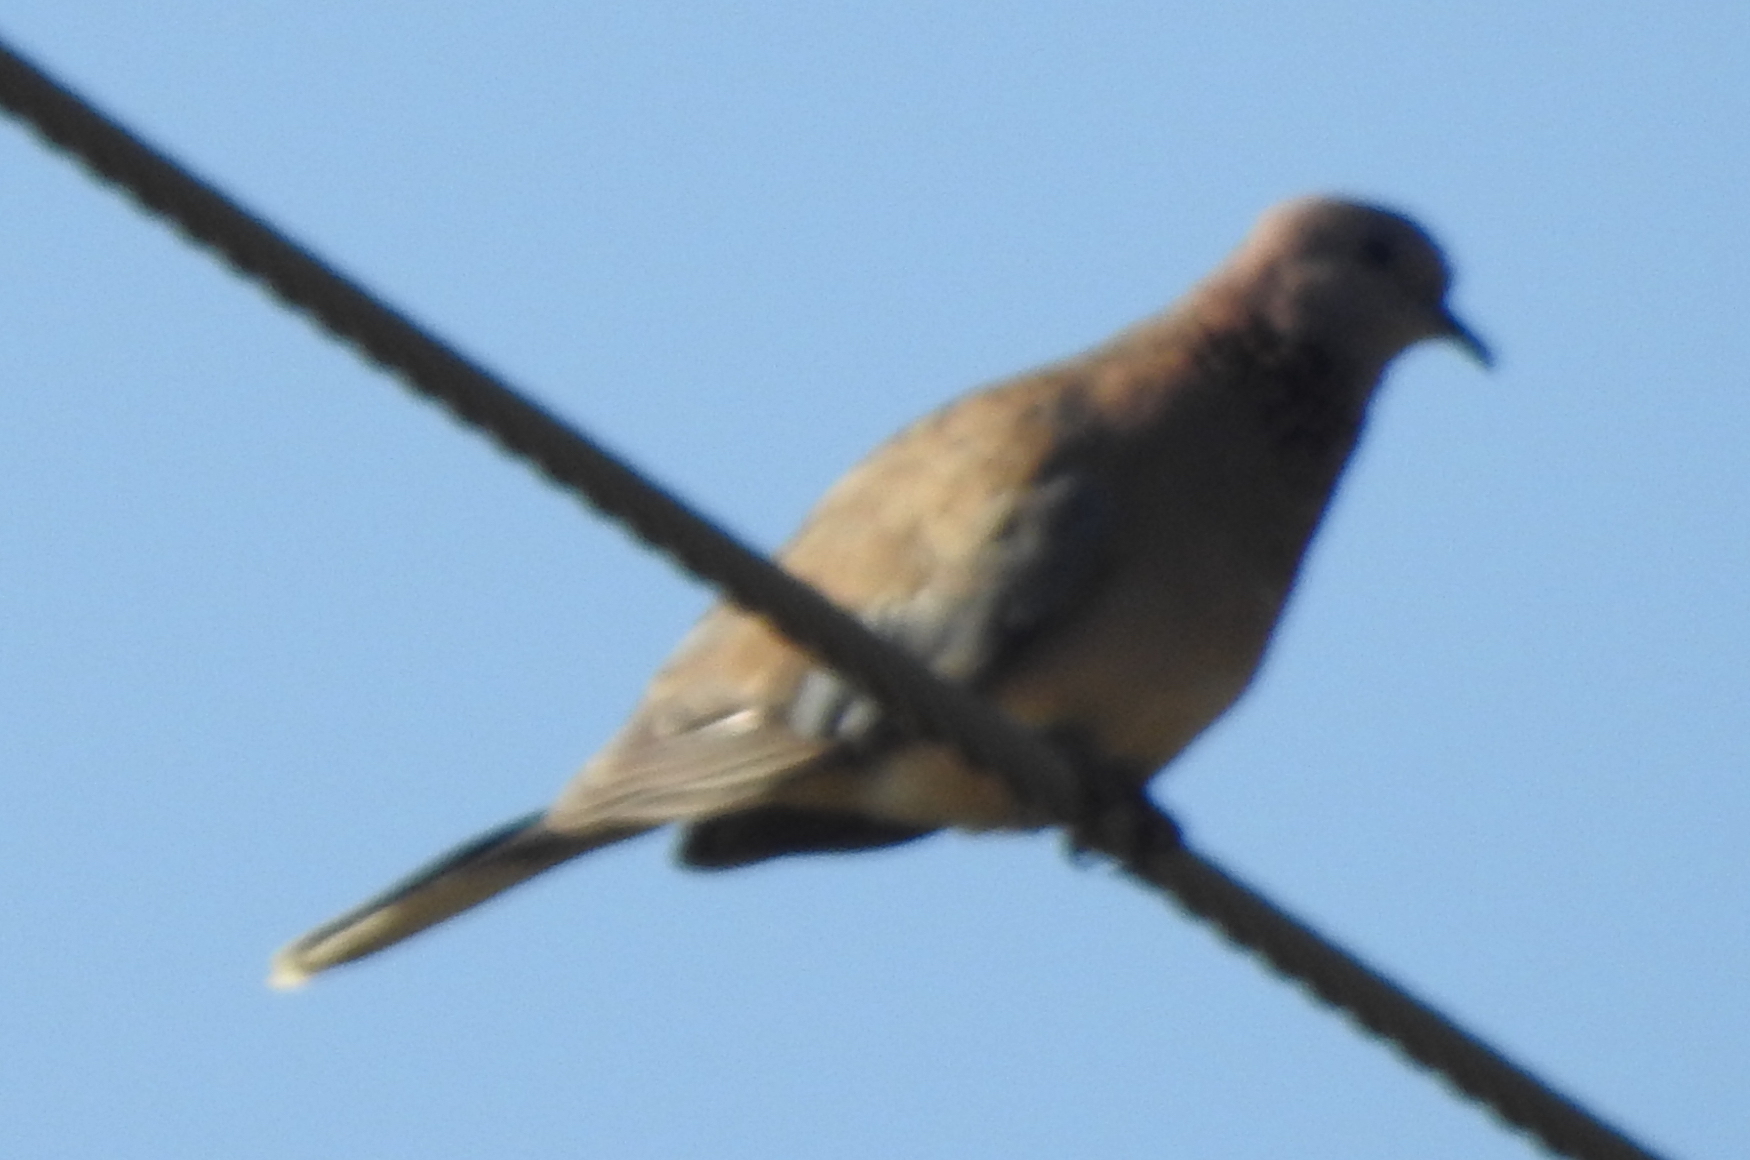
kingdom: Animalia
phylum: Chordata
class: Aves
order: Columbiformes
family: Columbidae
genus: Spilopelia
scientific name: Spilopelia senegalensis
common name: Laughing dove
